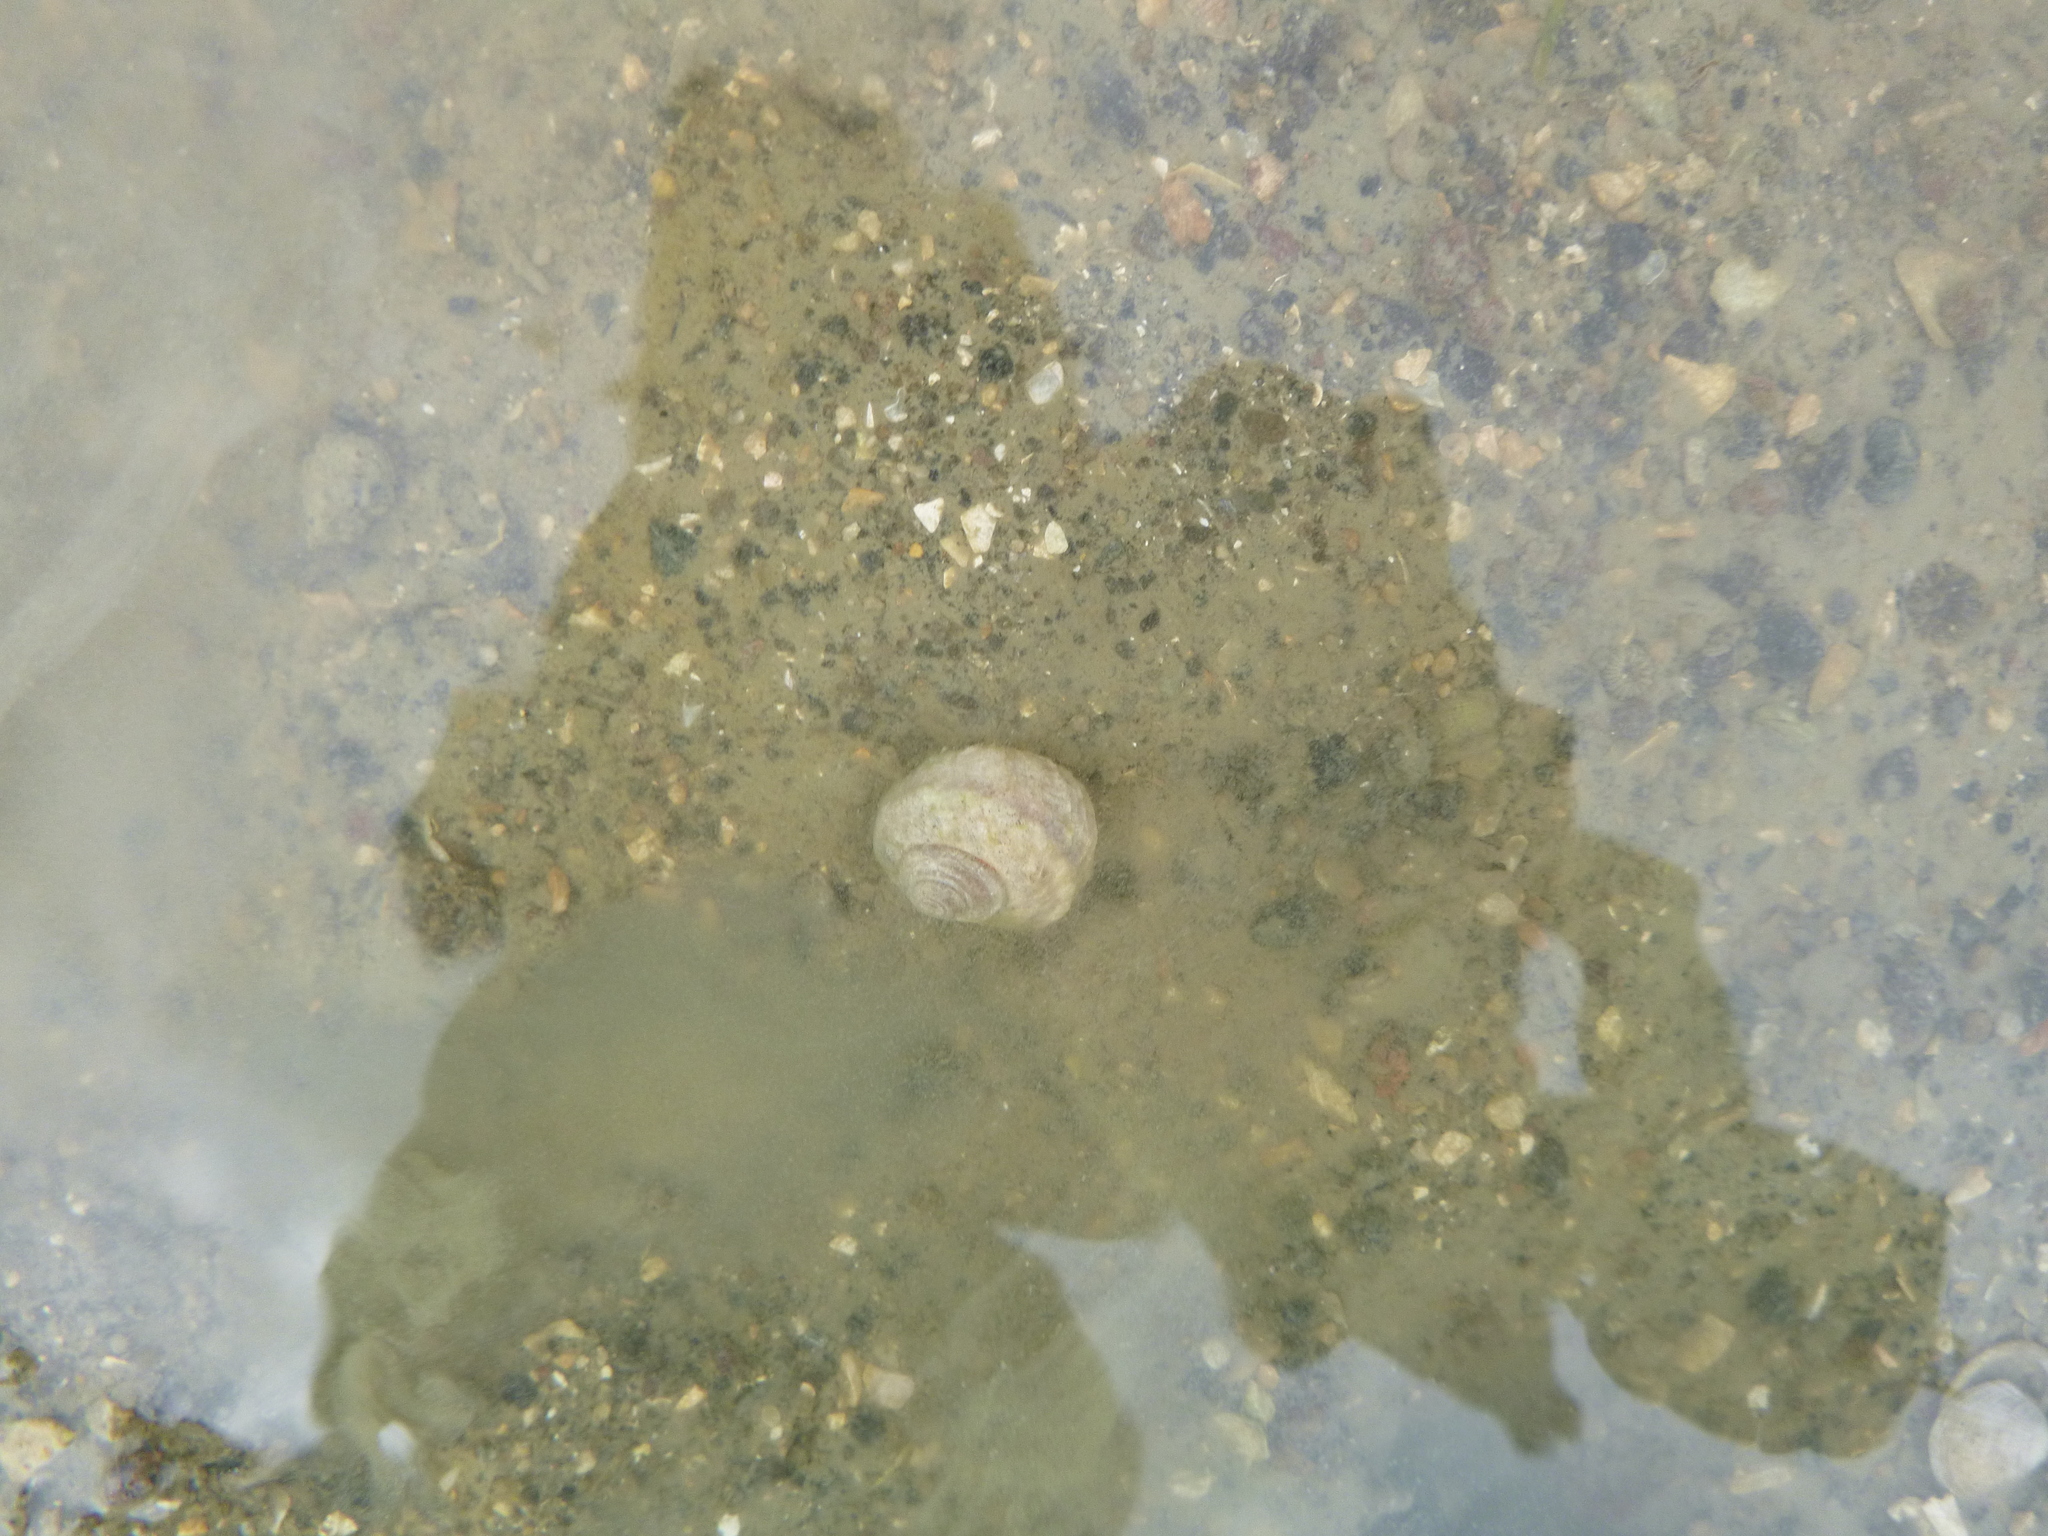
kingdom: Animalia
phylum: Mollusca
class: Gastropoda
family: Amphibolidae
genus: Amphibola
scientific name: Amphibola crenata
